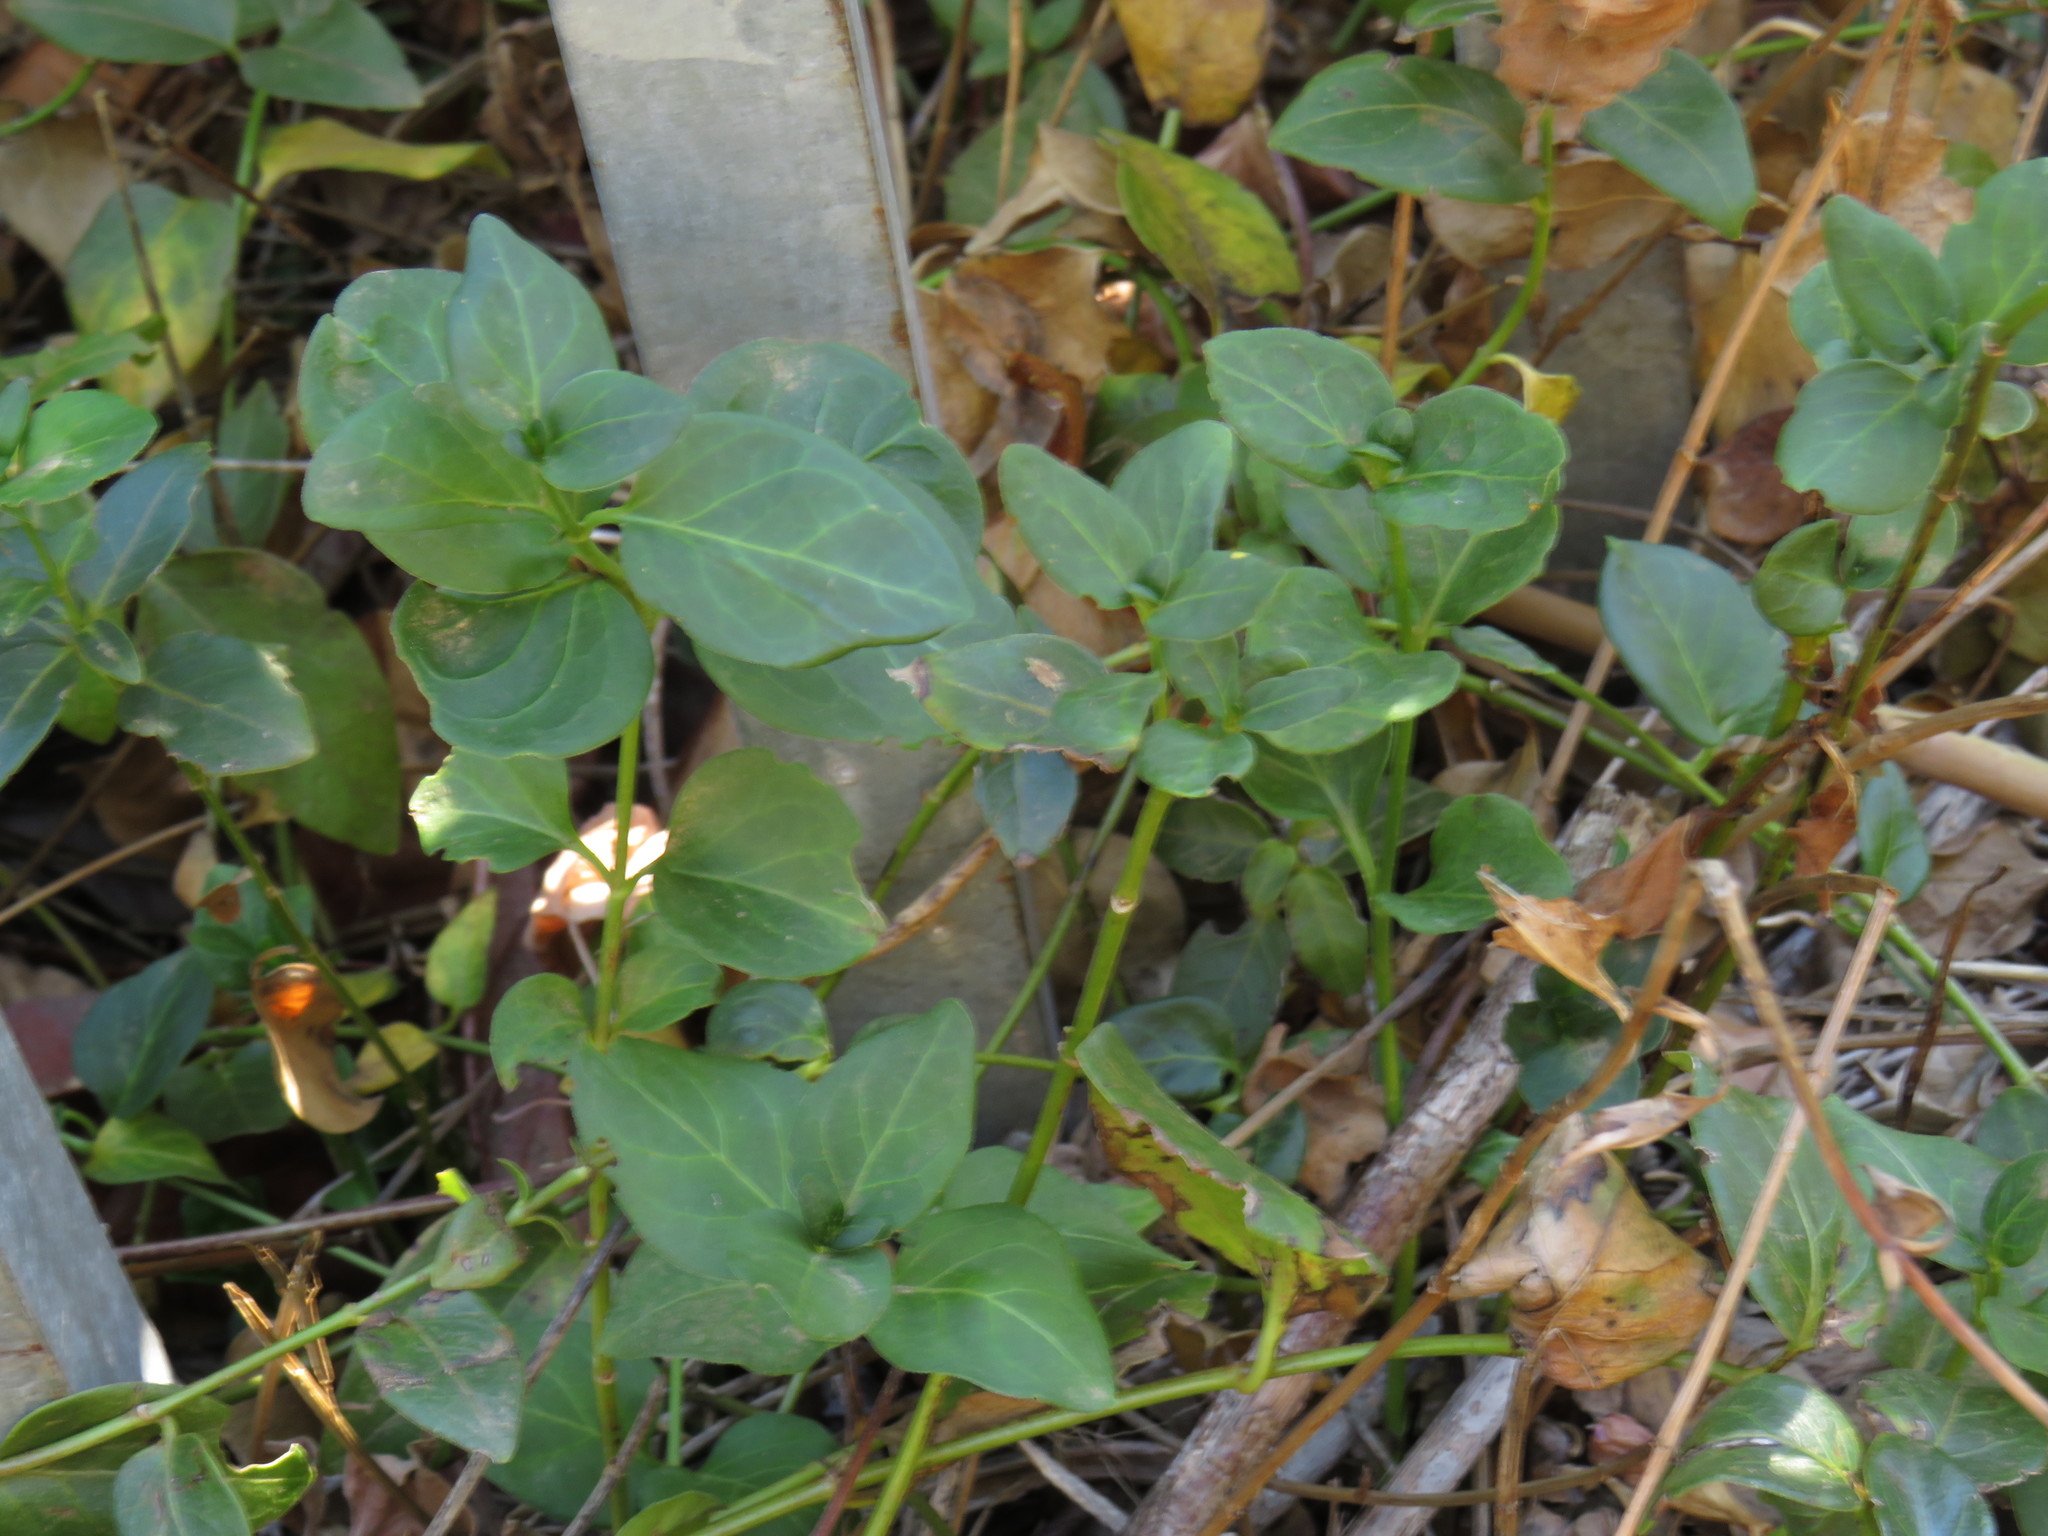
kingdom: Plantae
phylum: Tracheophyta
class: Magnoliopsida
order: Gentianales
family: Apocynaceae
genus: Vinca
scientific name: Vinca major
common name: Greater periwinkle
